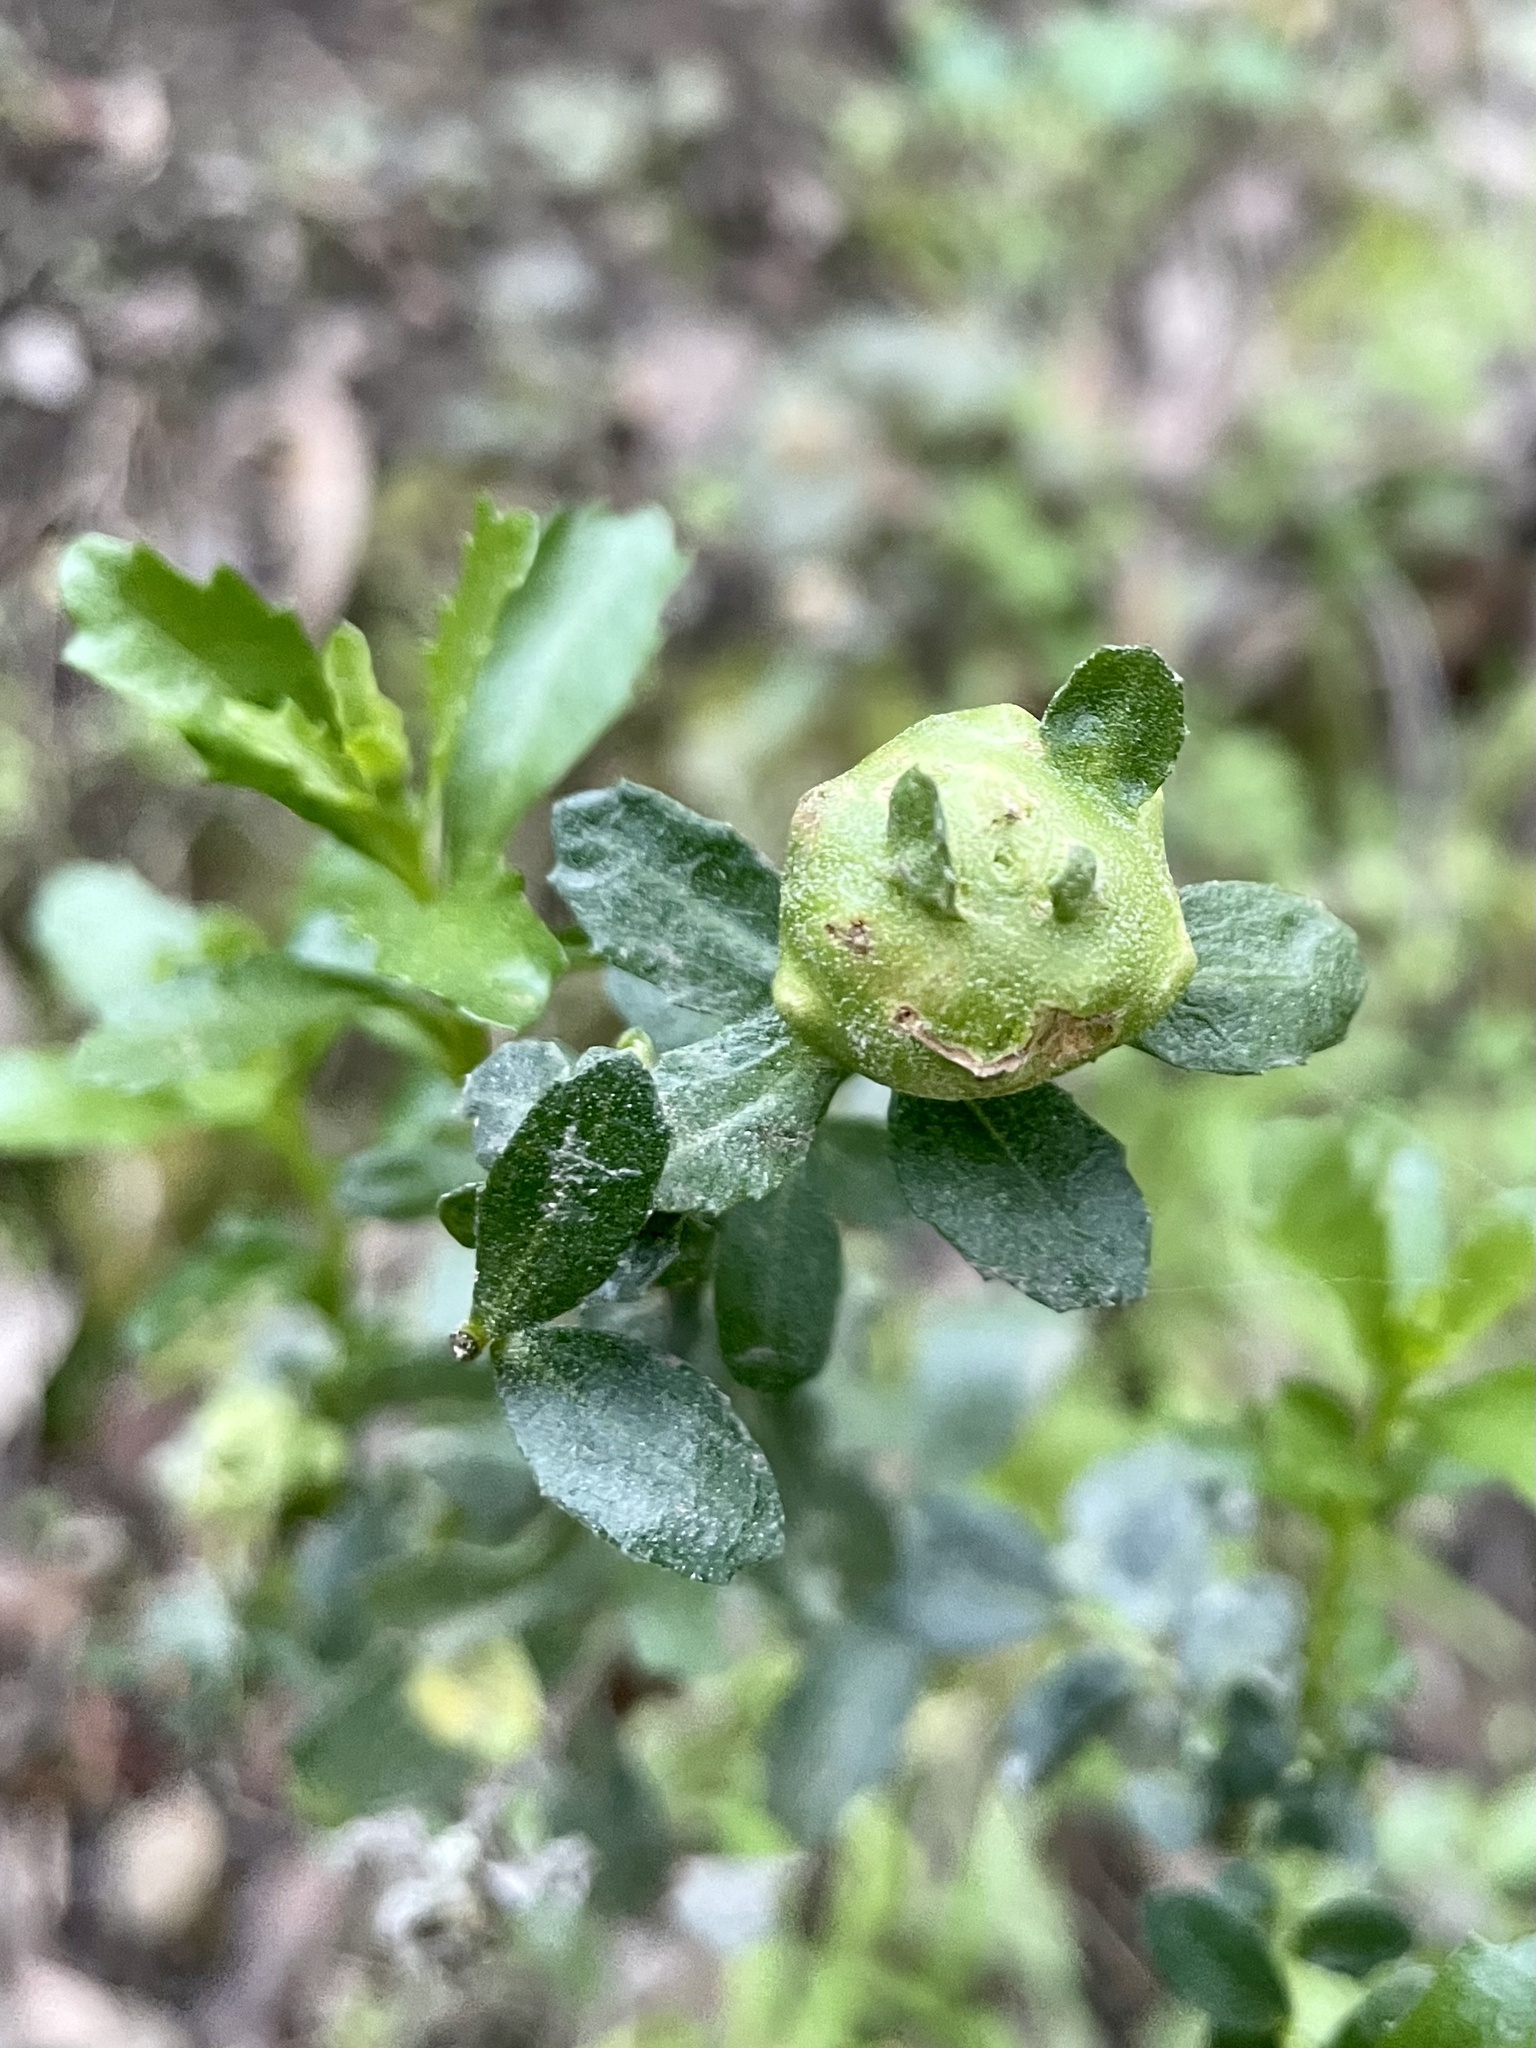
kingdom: Animalia
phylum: Arthropoda
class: Insecta
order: Diptera
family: Cecidomyiidae
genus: Rhopalomyia
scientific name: Rhopalomyia californica
